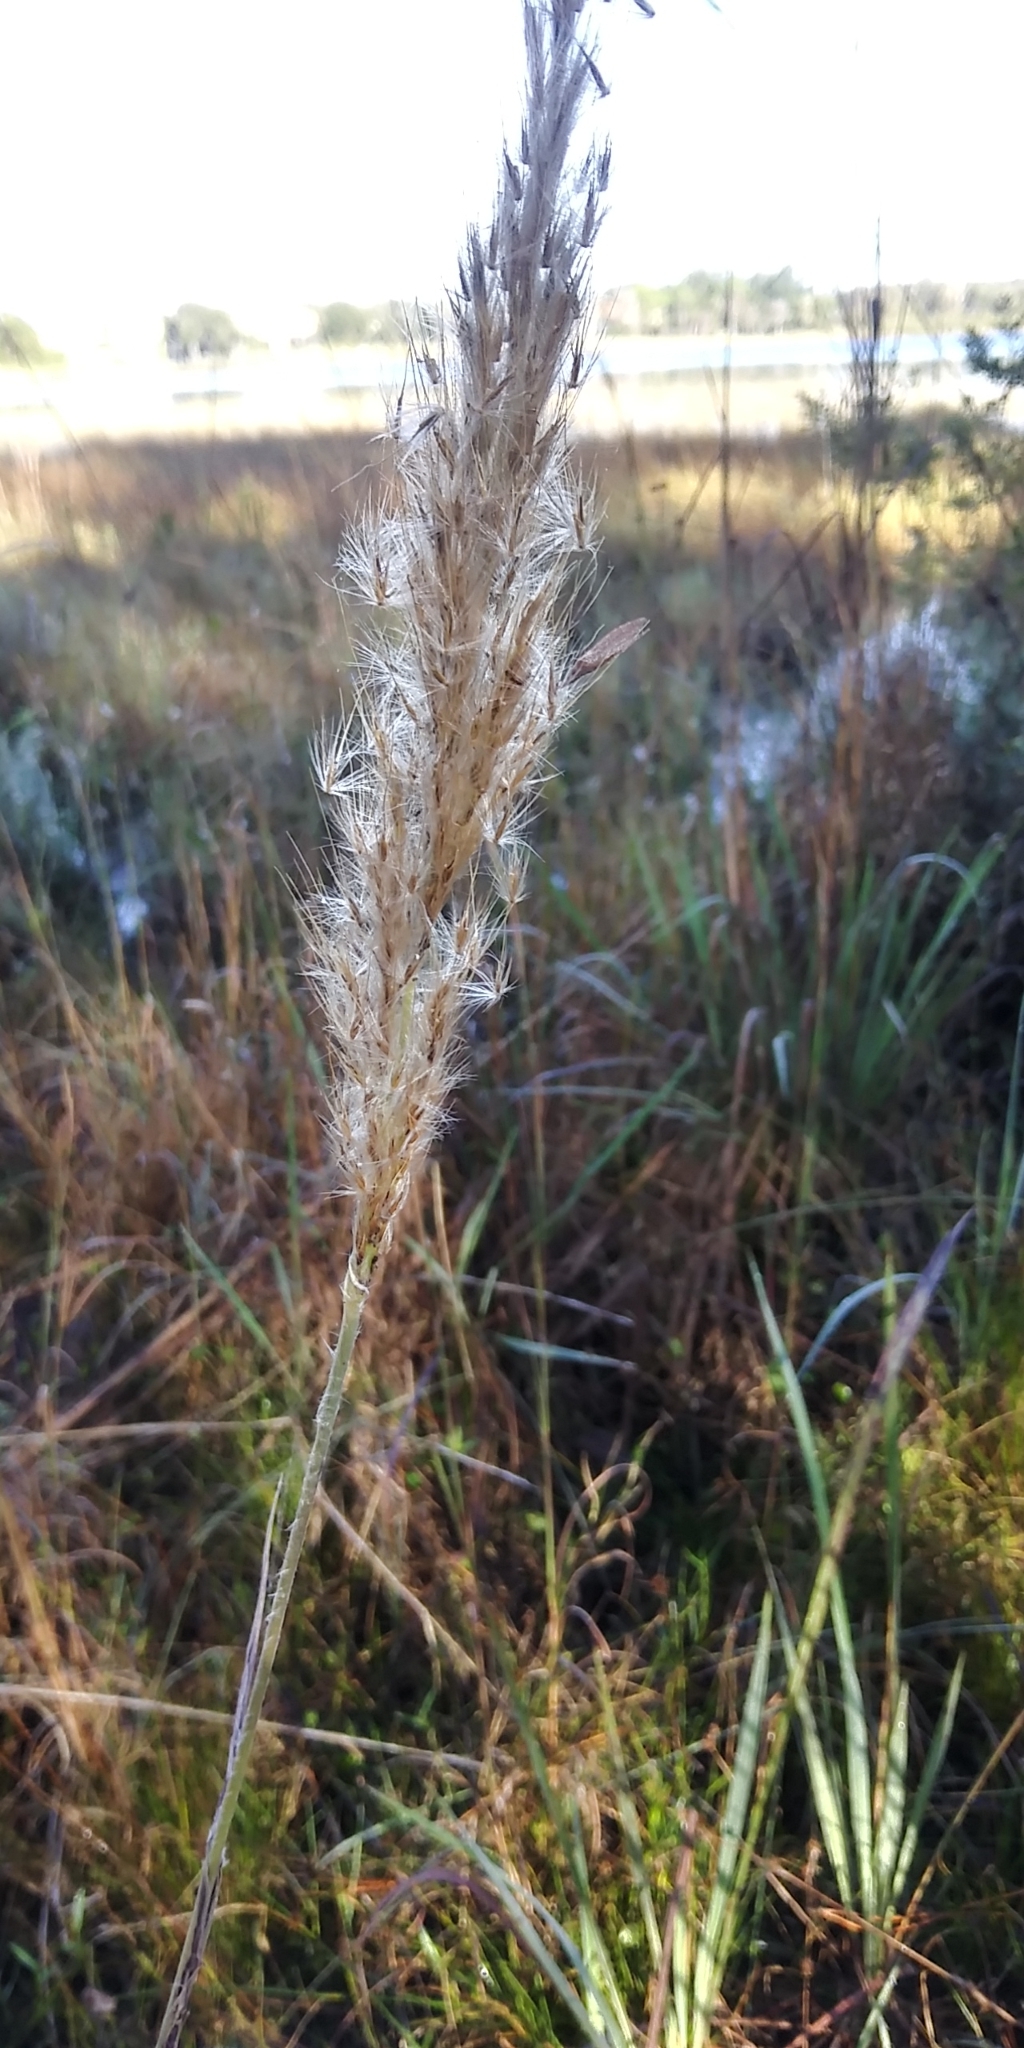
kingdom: Plantae
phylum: Tracheophyta
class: Liliopsida
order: Poales
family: Poaceae
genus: Erianthus
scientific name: Erianthus giganteus
